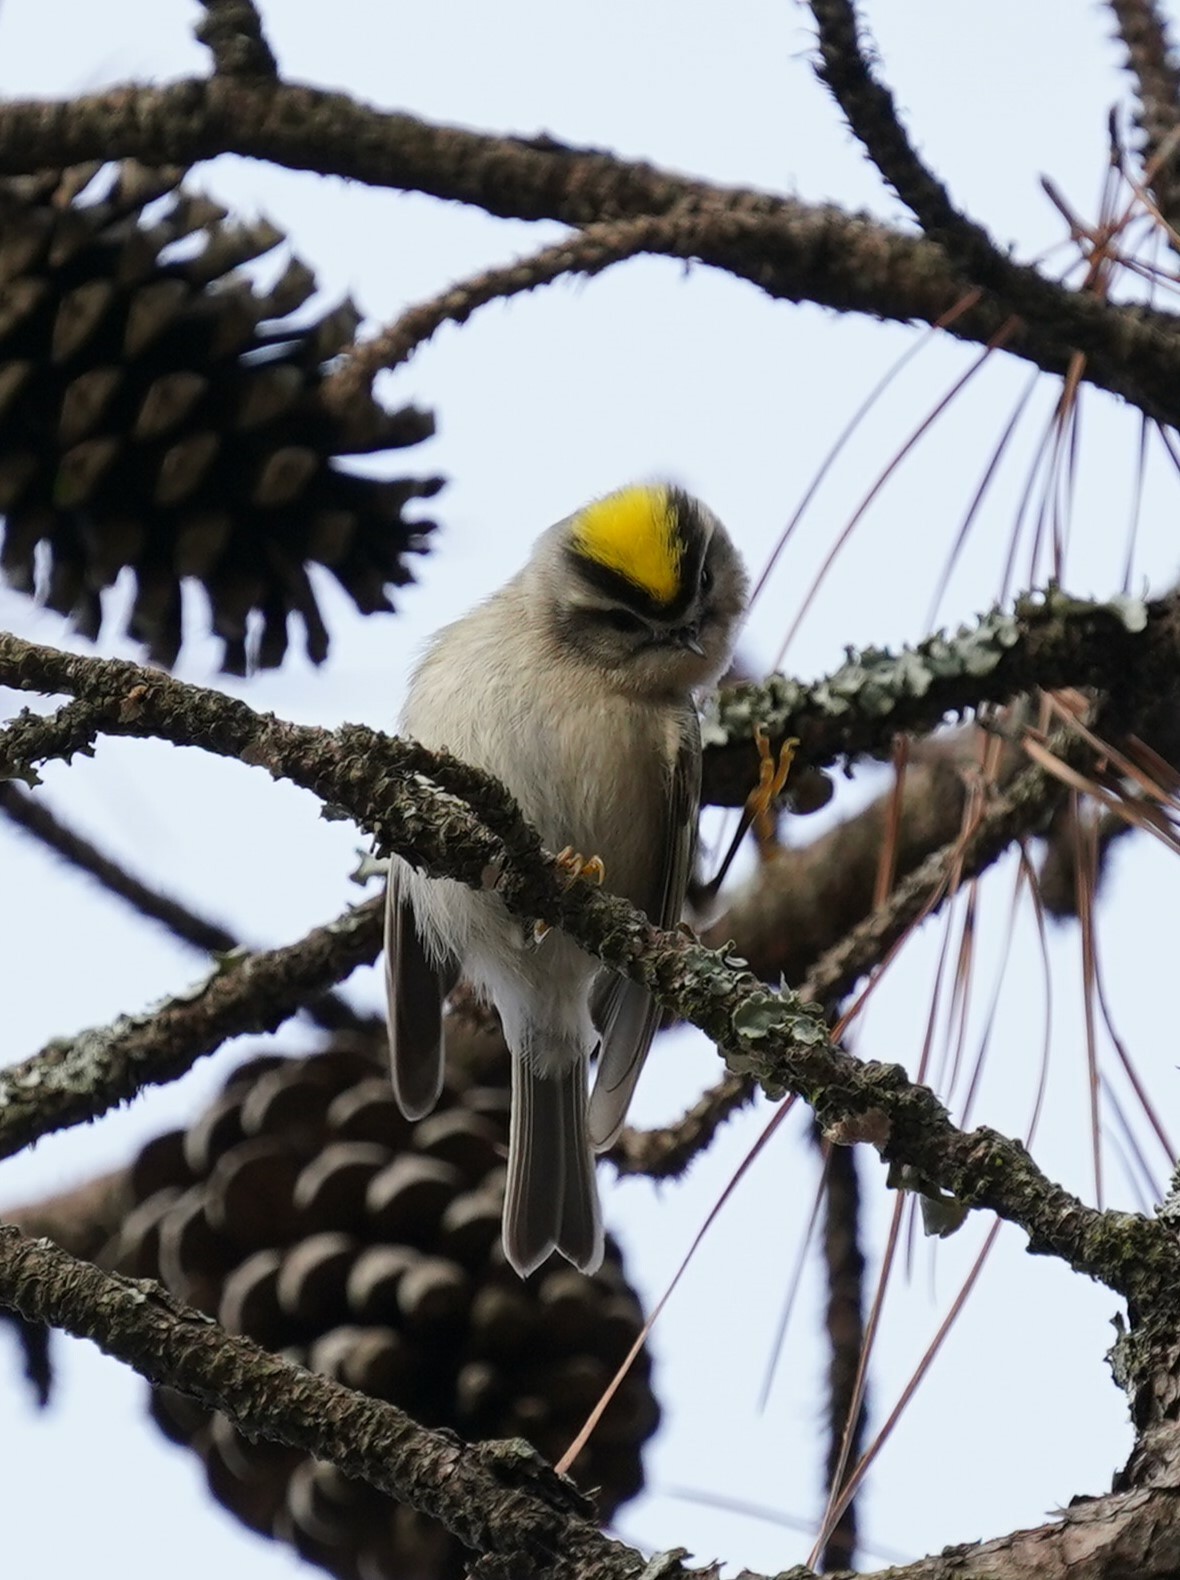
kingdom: Animalia
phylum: Chordata
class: Aves
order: Passeriformes
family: Regulidae
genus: Regulus
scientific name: Regulus satrapa
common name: Golden-crowned kinglet
